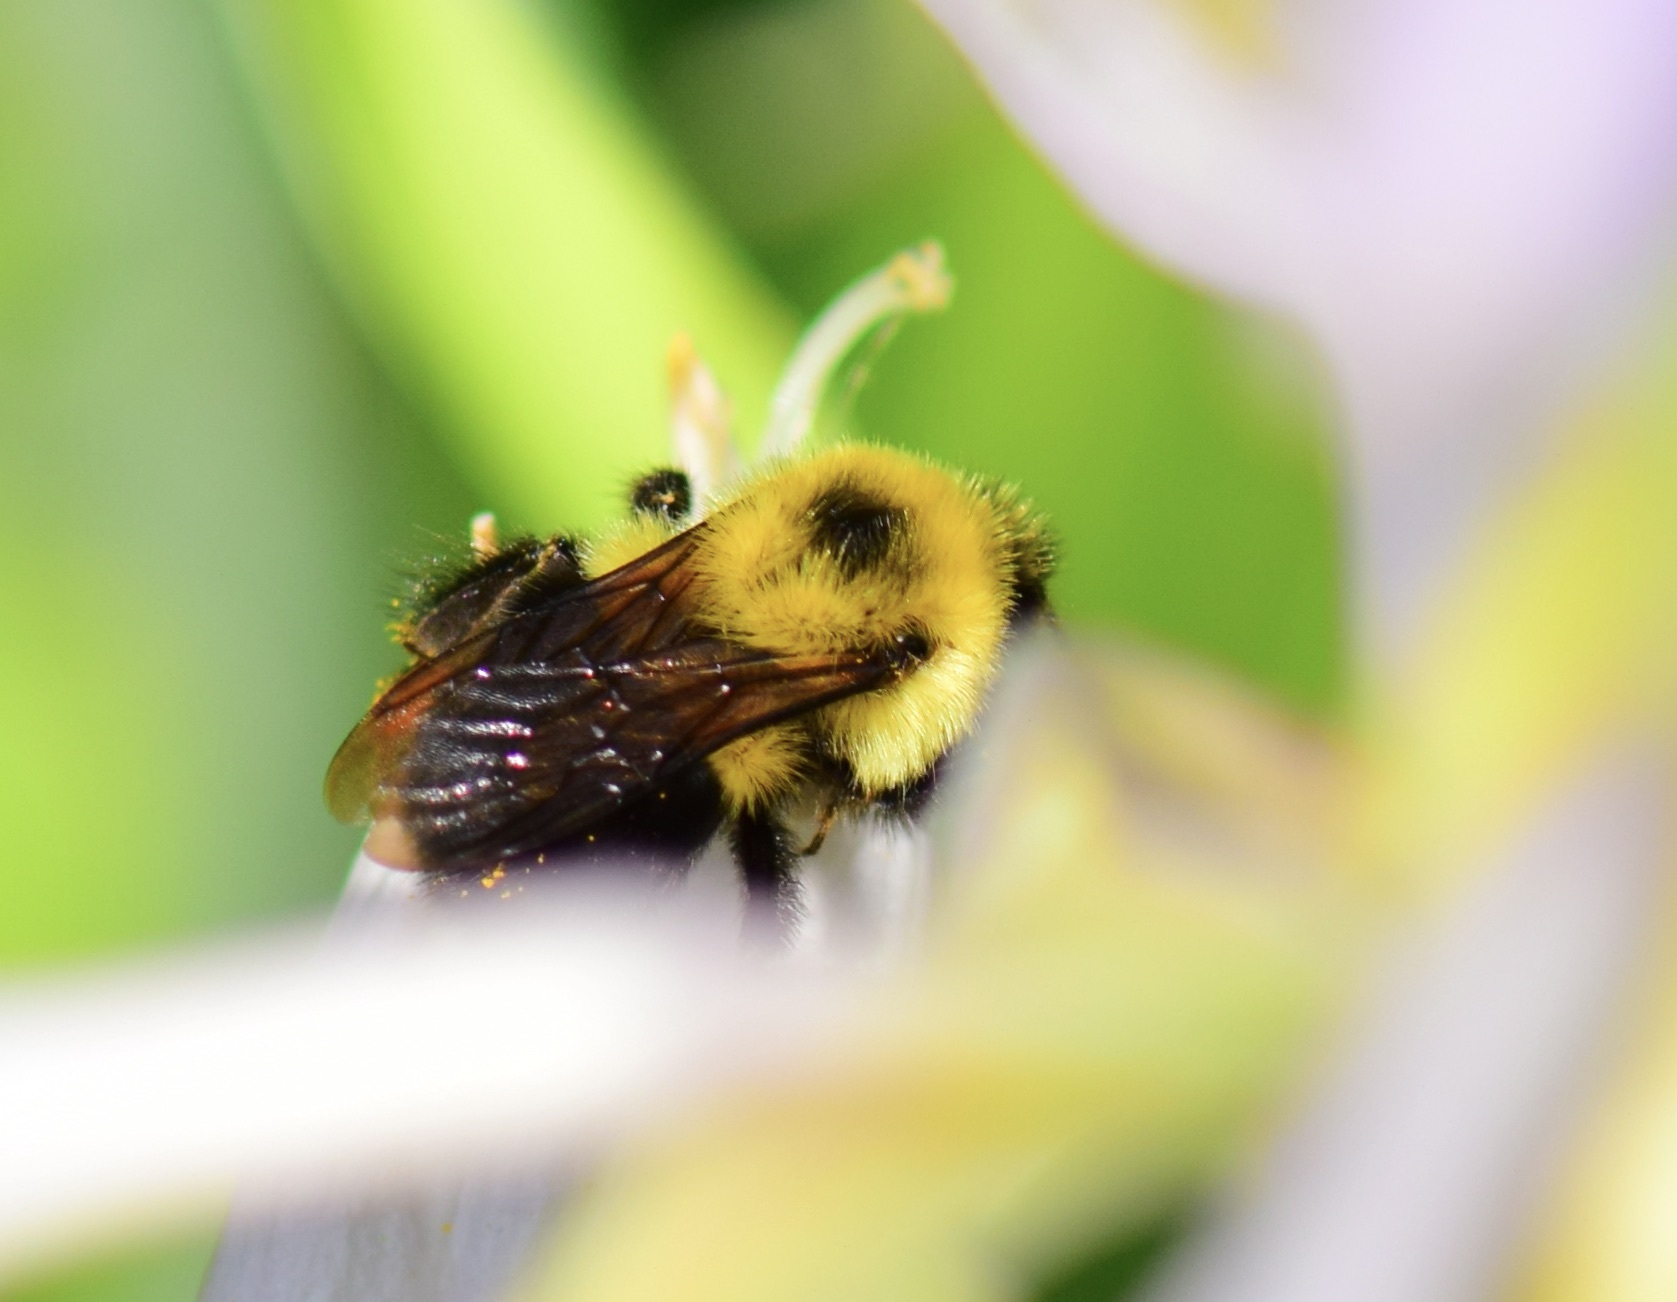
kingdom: Animalia
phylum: Arthropoda
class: Insecta
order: Hymenoptera
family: Apidae
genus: Bombus
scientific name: Bombus bimaculatus
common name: Two-spotted bumble bee
